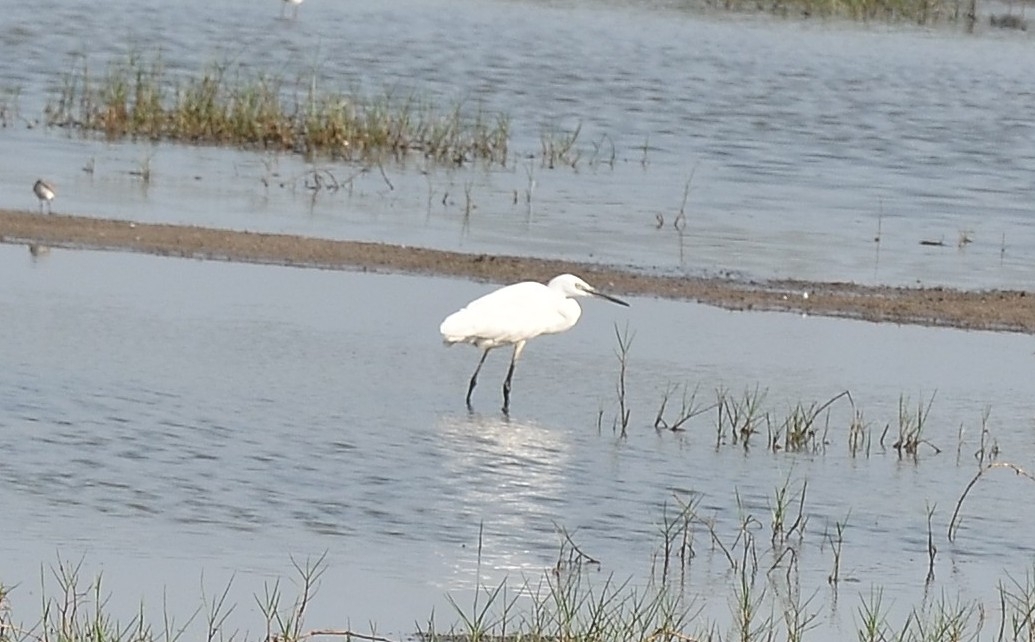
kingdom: Animalia
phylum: Chordata
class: Aves
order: Pelecaniformes
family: Ardeidae
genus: Egretta
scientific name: Egretta garzetta
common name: Little egret
